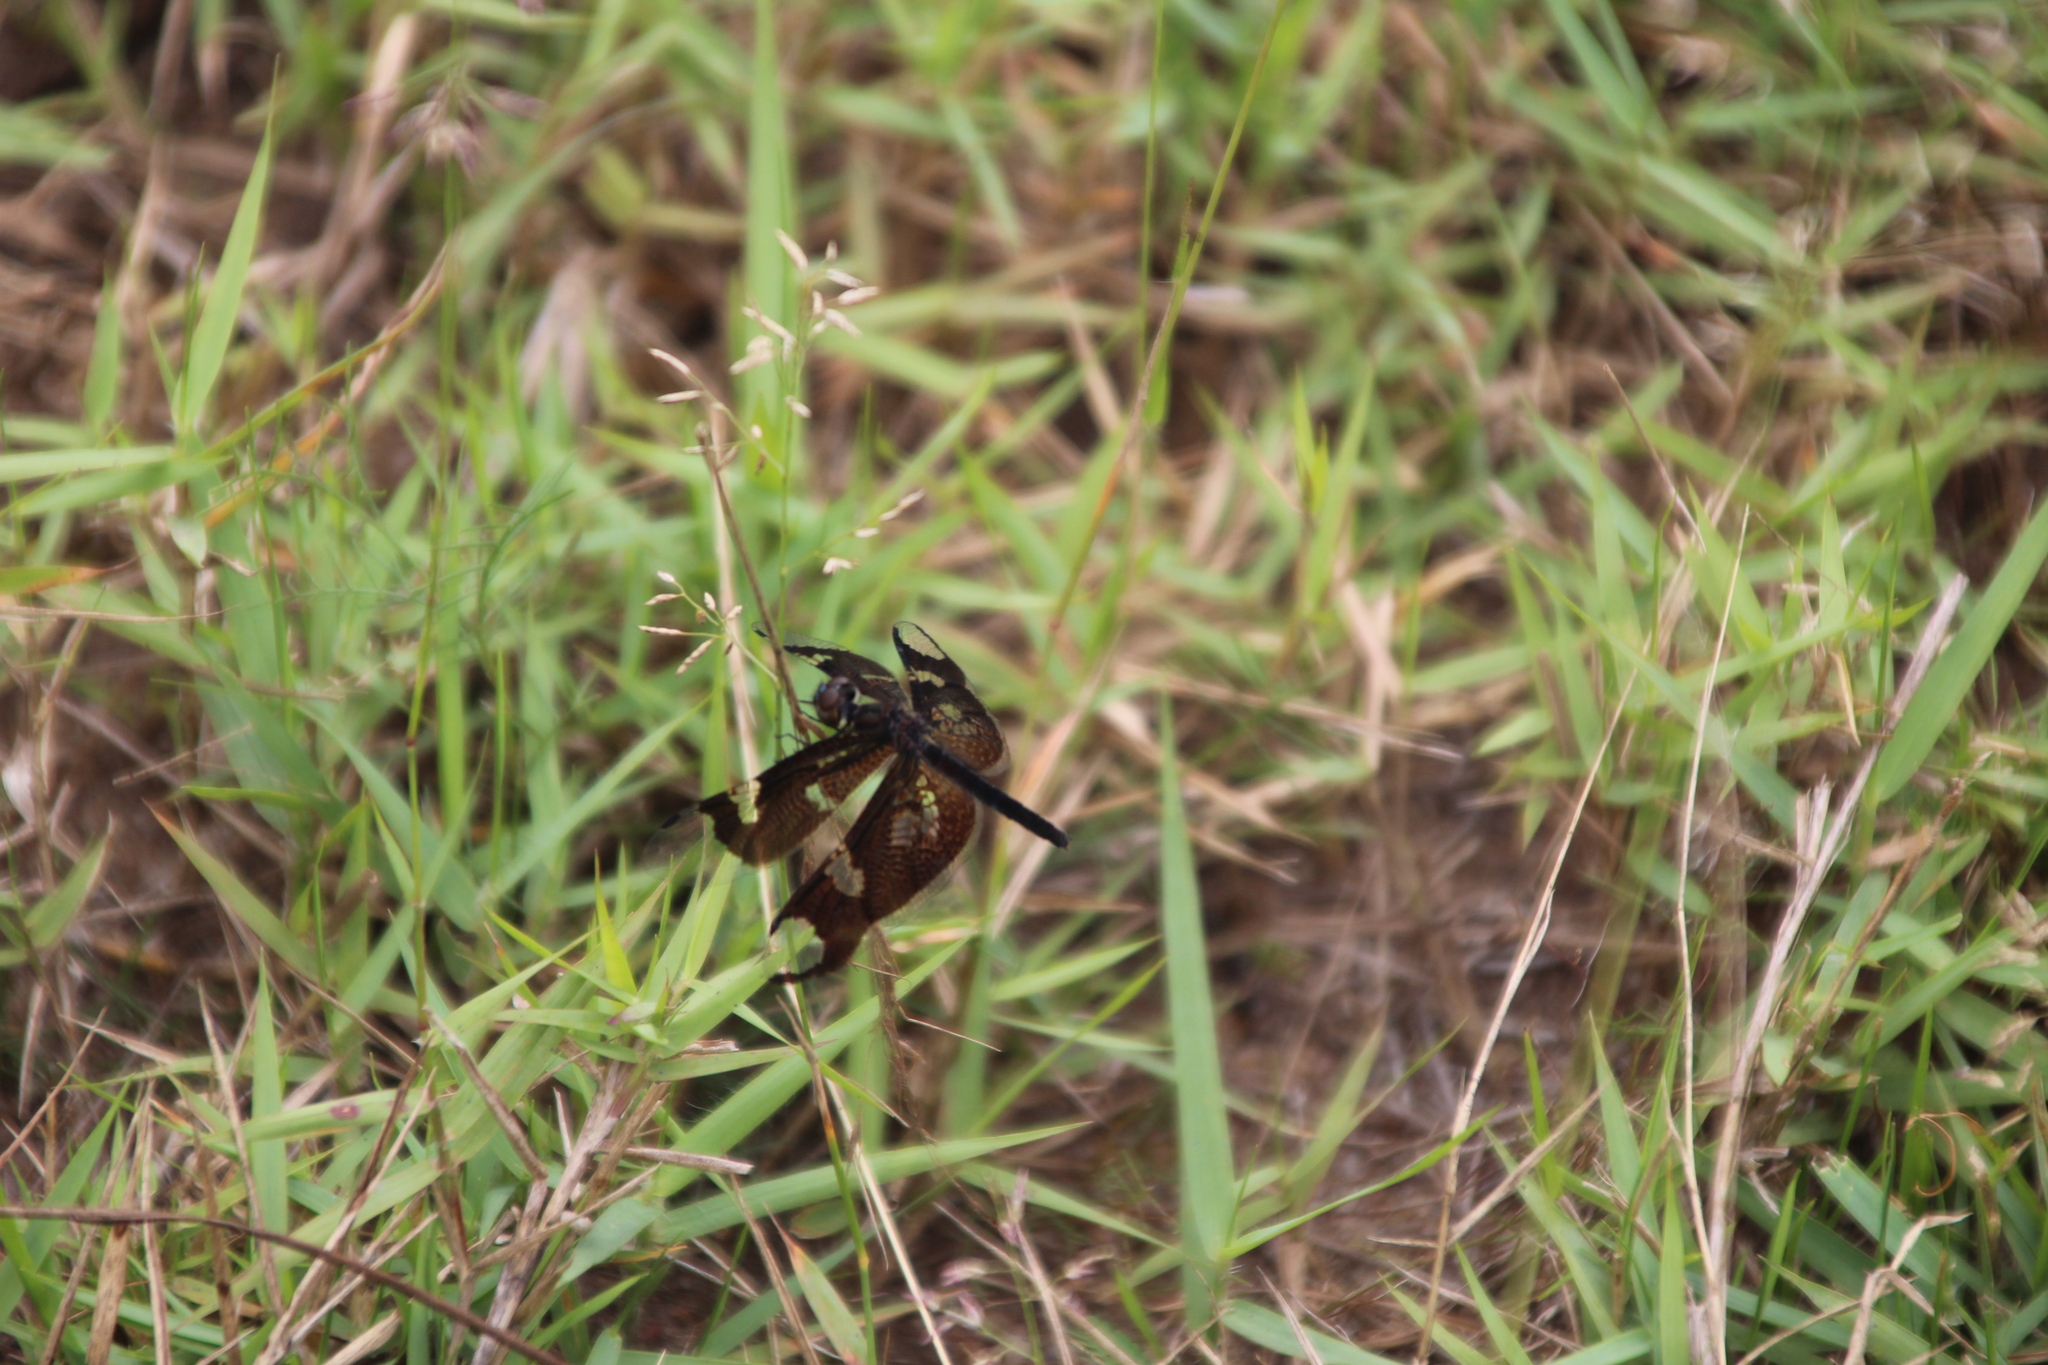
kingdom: Animalia
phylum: Arthropoda
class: Insecta
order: Odonata
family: Libellulidae
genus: Rhyothemis
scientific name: Rhyothemis fenestrina
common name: Skylight flutterer
